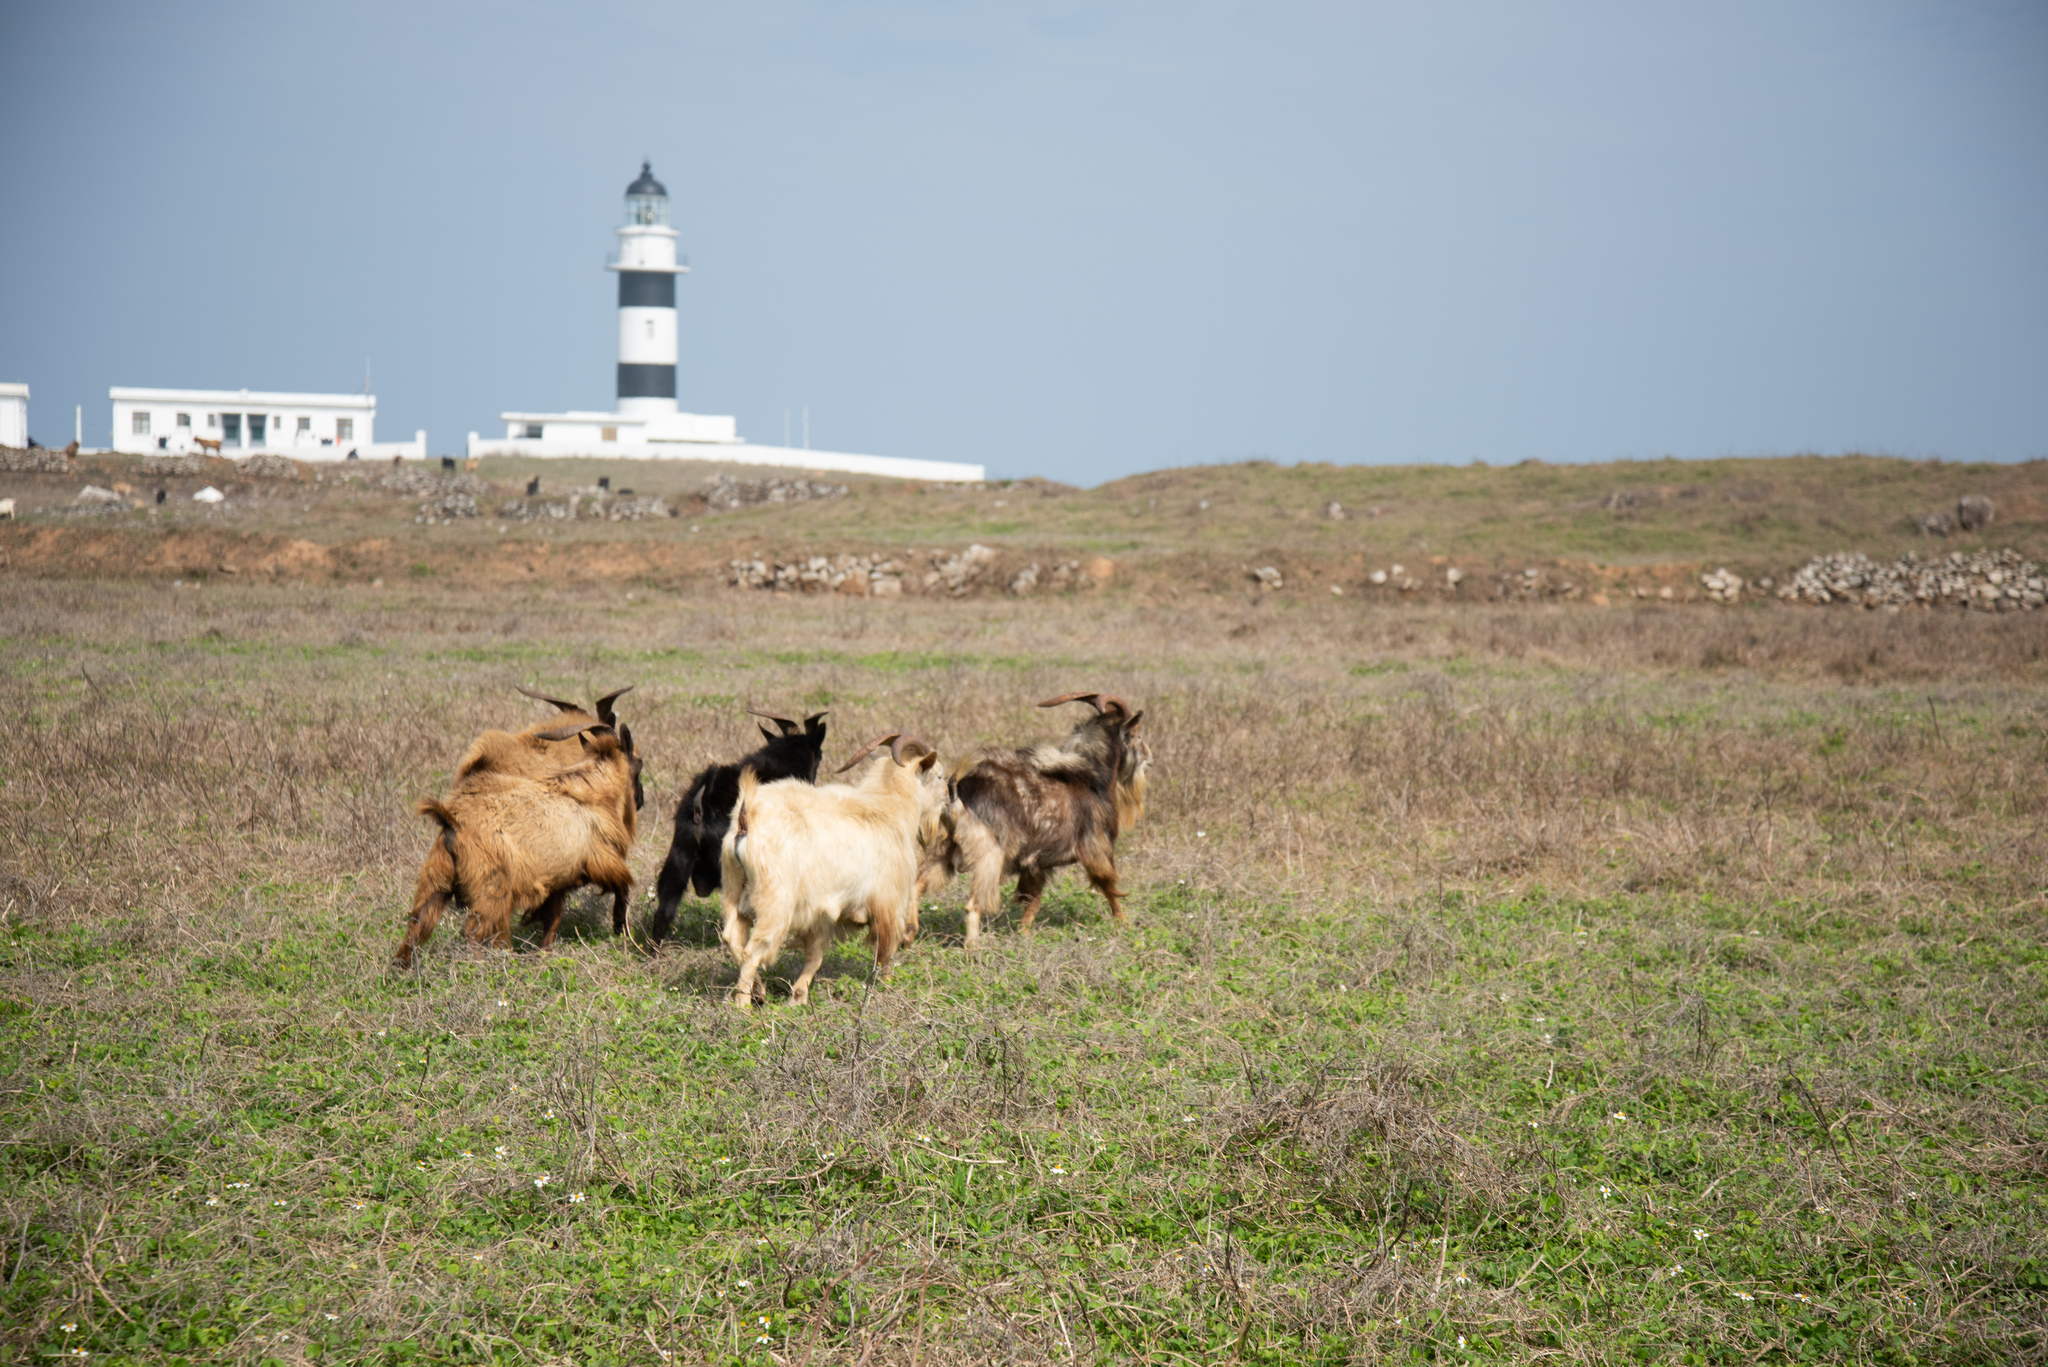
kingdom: Animalia
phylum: Chordata
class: Mammalia
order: Artiodactyla
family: Bovidae
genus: Capra
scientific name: Capra hircus
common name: Domestic goat
